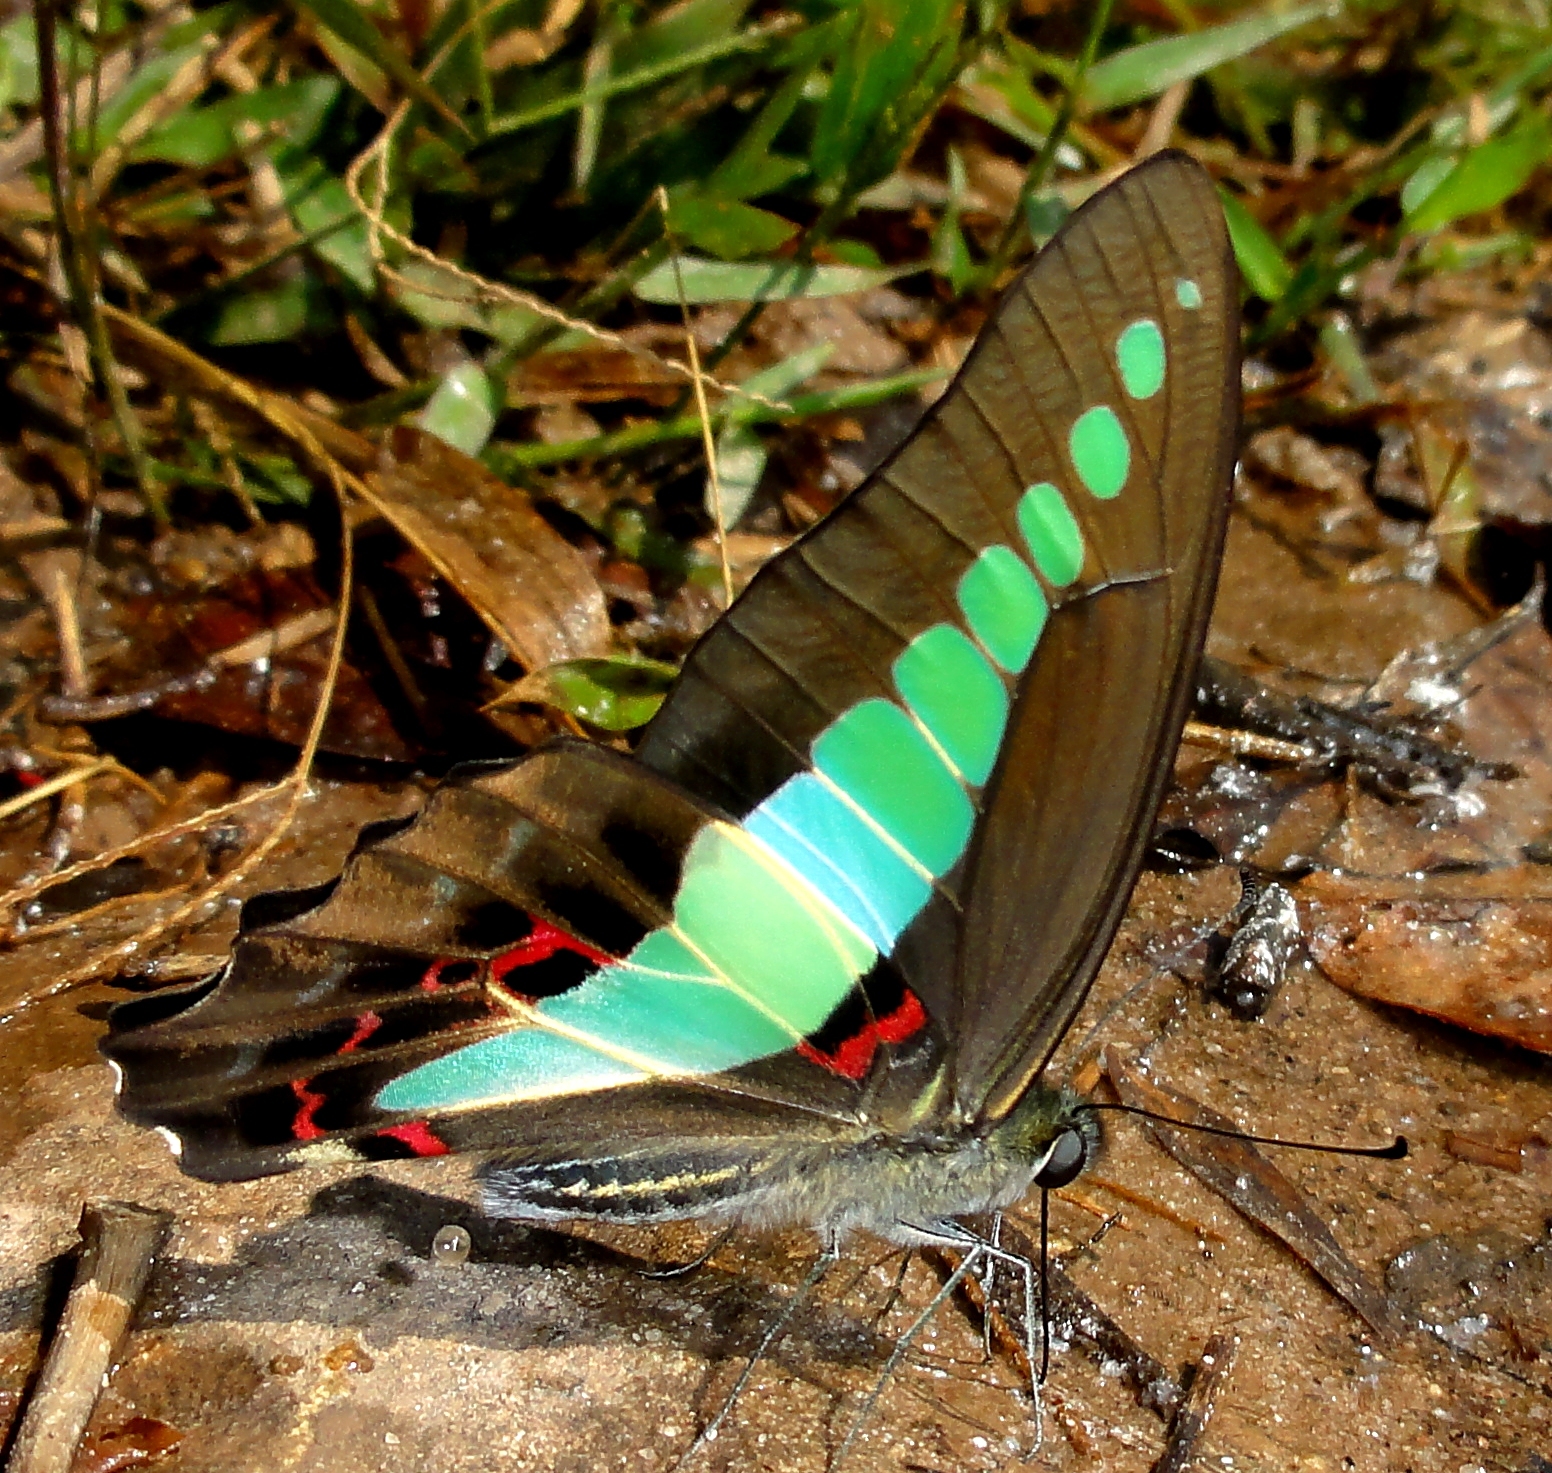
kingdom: Fungi
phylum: Ascomycota
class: Sordariomycetes
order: Microascales
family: Microascaceae
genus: Graphium
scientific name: Graphium sarpedon
